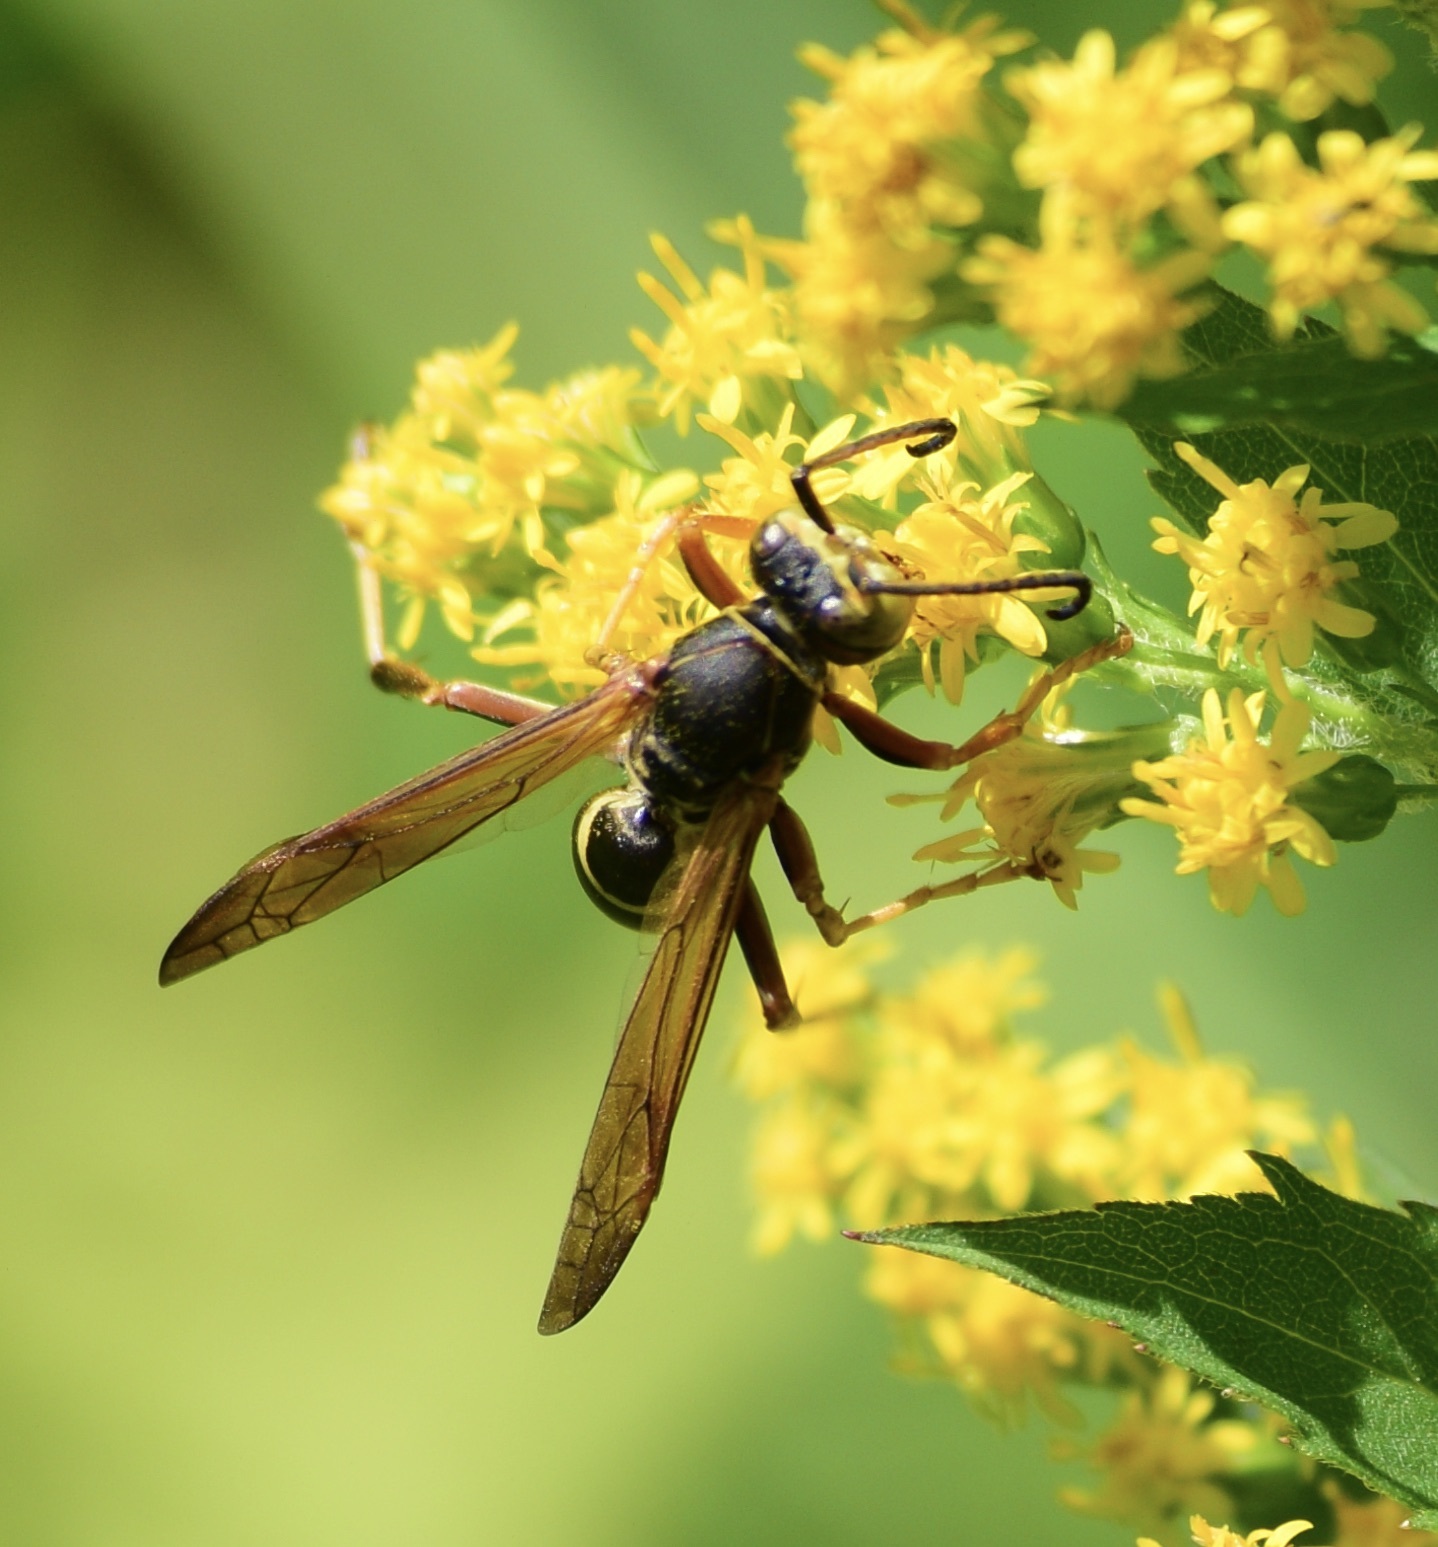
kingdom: Animalia
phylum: Arthropoda
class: Insecta
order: Hymenoptera
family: Eumenidae
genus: Polistes
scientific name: Polistes fuscatus
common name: Dark paper wasp
